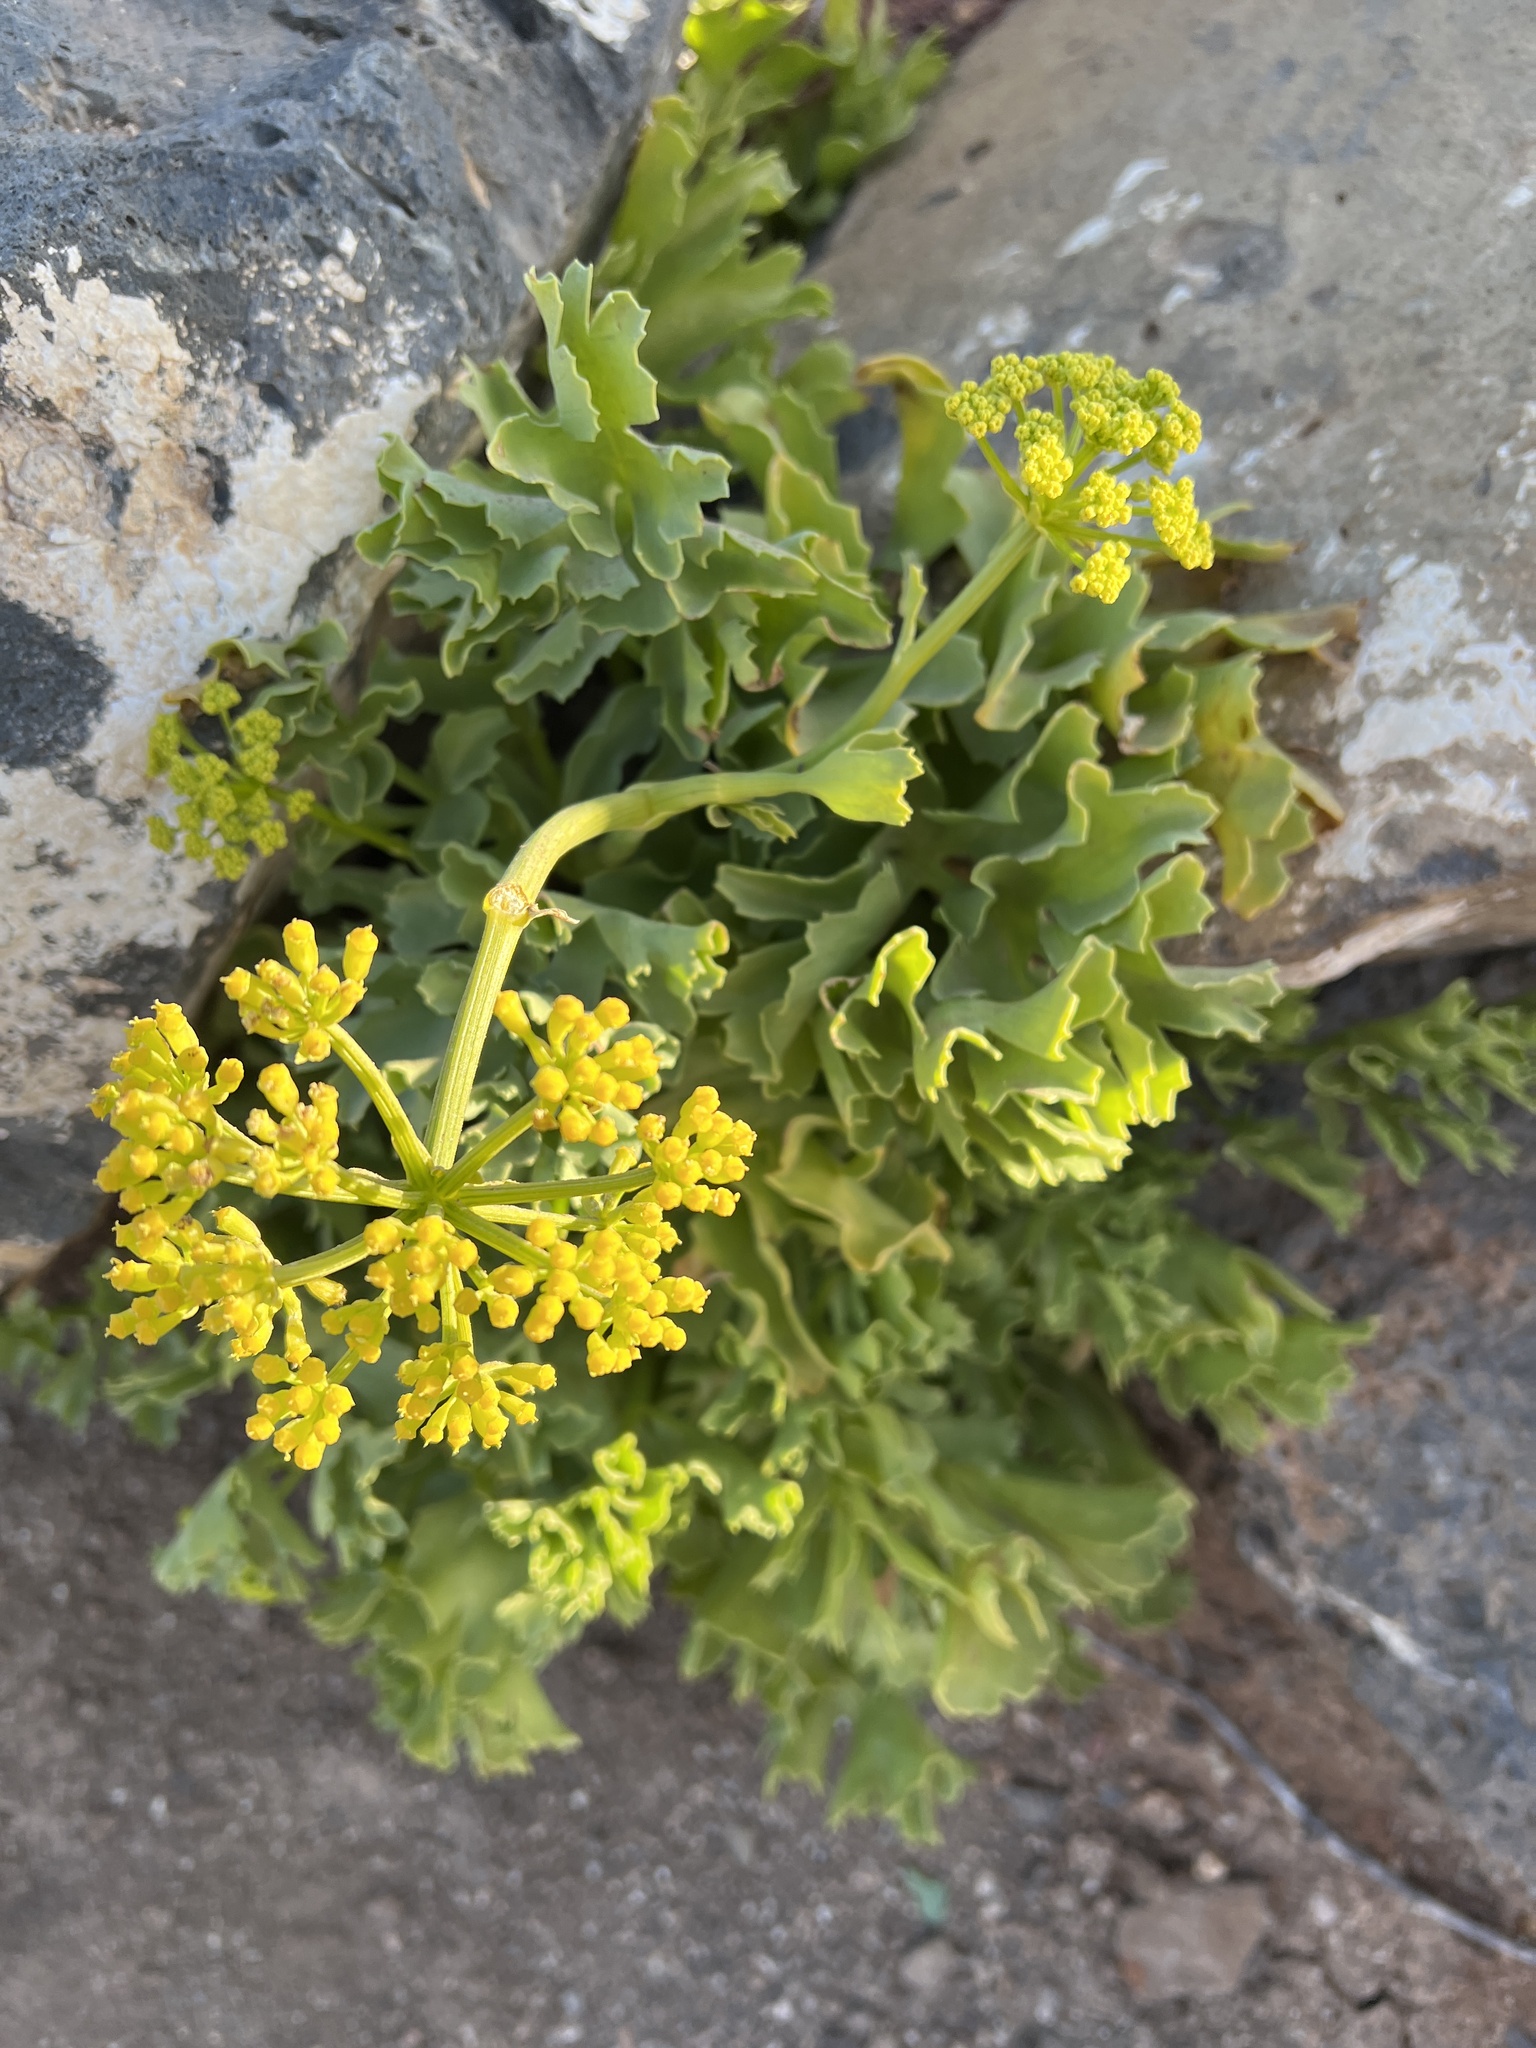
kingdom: Plantae
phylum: Tracheophyta
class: Magnoliopsida
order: Apiales
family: Apiaceae
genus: Astydamia
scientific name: Astydamia latifolia
